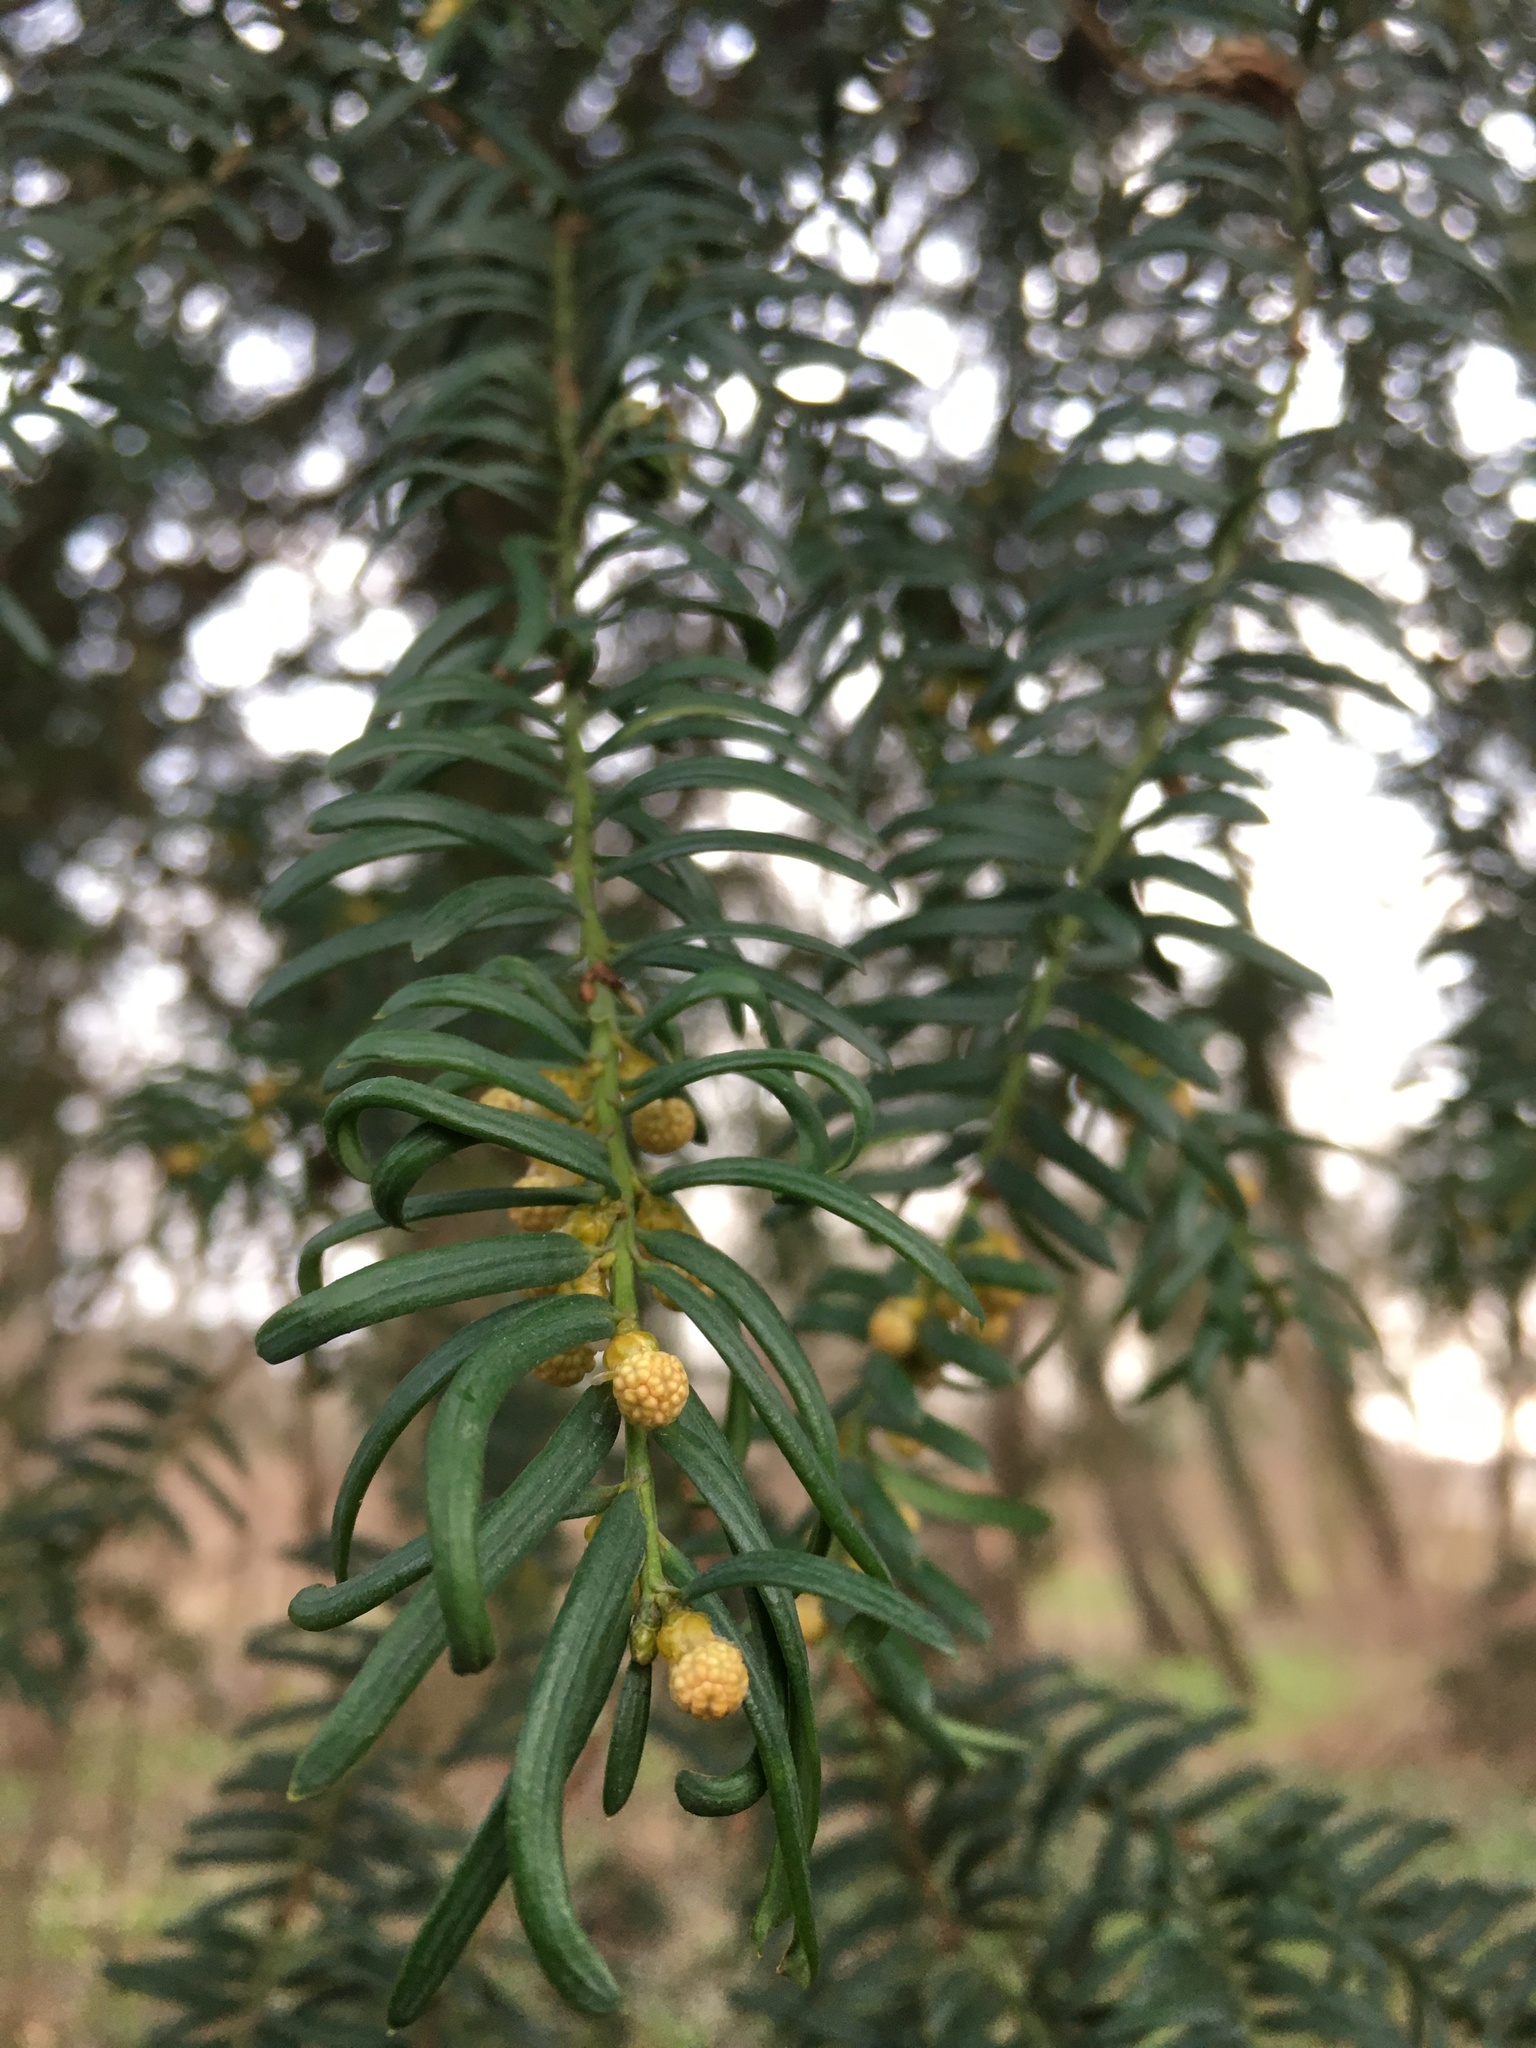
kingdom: Plantae
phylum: Tracheophyta
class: Pinopsida
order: Pinales
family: Taxaceae
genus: Taxus
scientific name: Taxus baccata
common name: Yew
